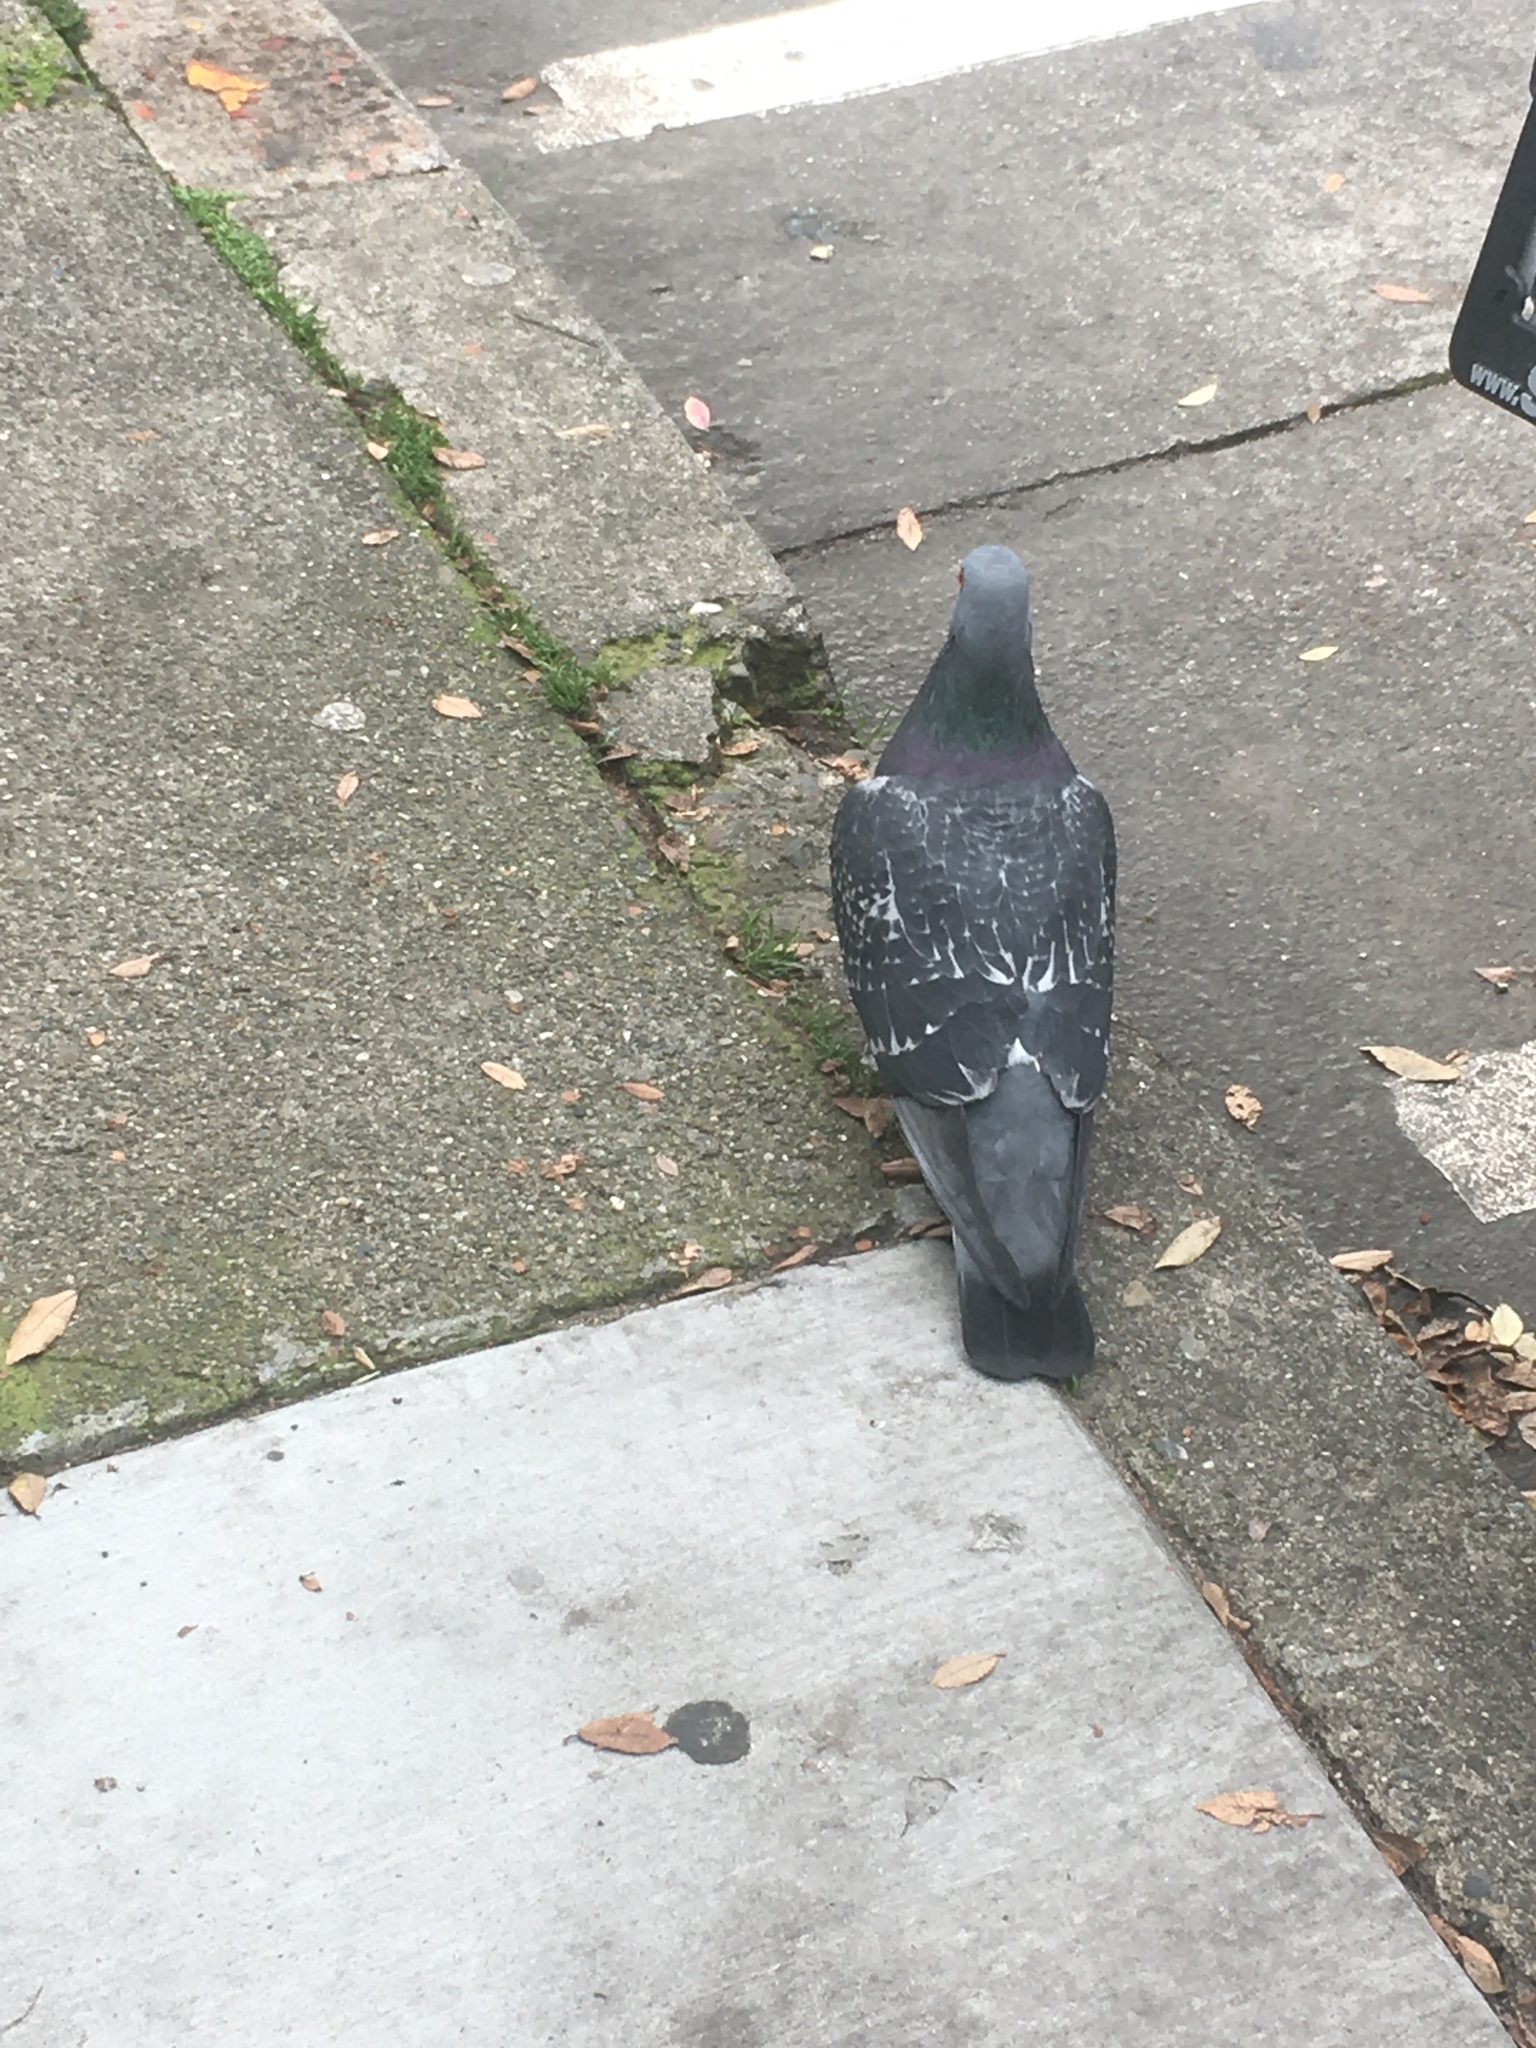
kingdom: Animalia
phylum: Chordata
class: Aves
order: Columbiformes
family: Columbidae
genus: Columba
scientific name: Columba livia
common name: Rock pigeon
